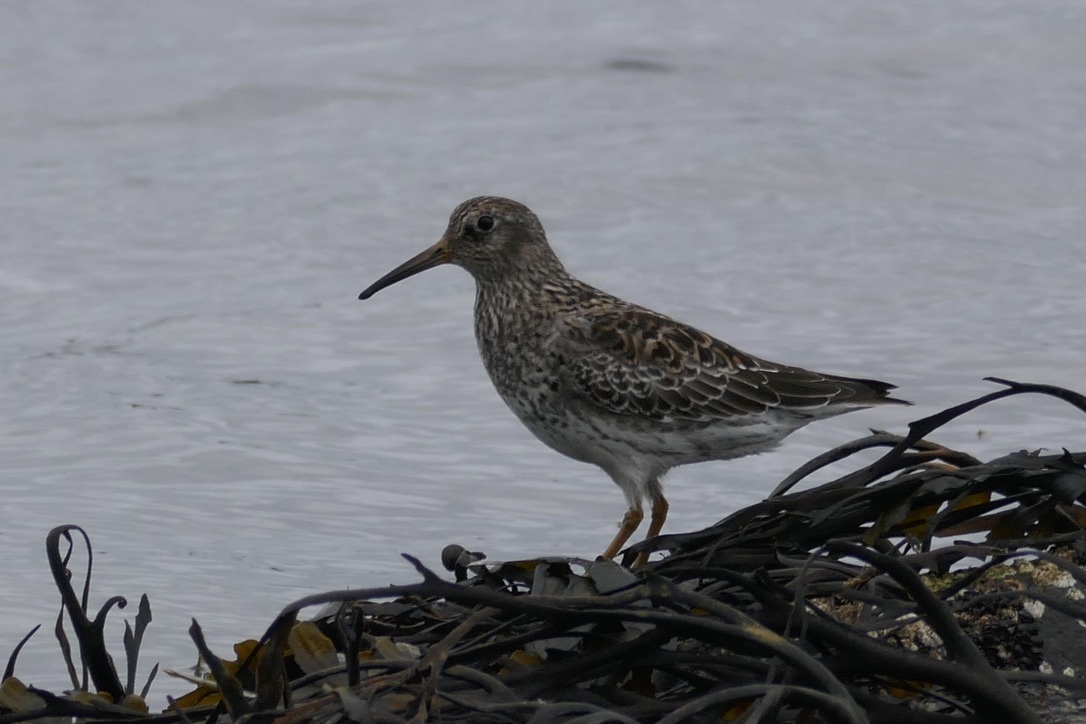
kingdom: Animalia
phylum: Chordata
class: Aves
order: Charadriiformes
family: Scolopacidae
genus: Calidris
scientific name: Calidris maritima
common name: Purple sandpiper
